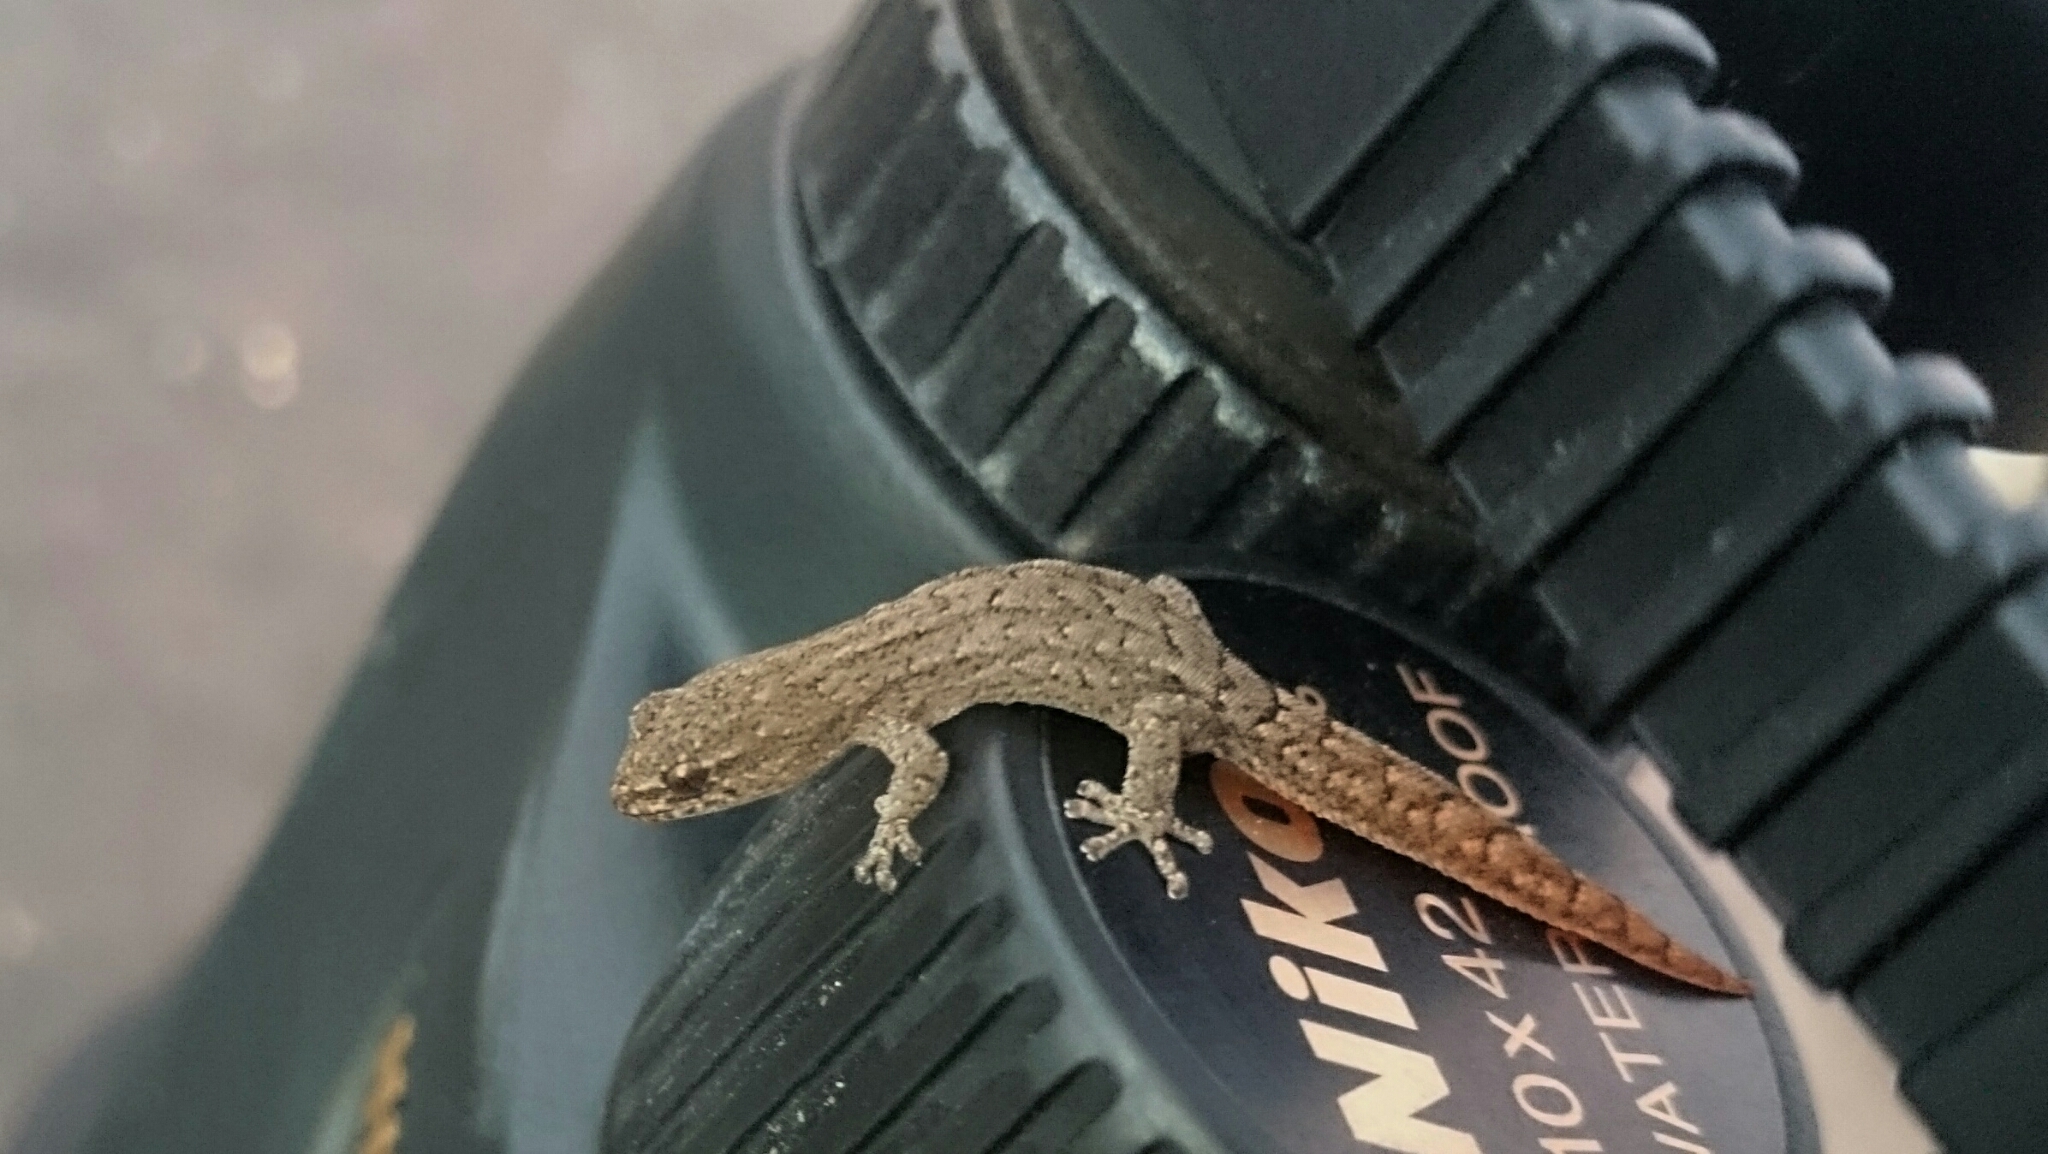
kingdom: Animalia
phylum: Chordata
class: Squamata
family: Gekkonidae
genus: Goggia
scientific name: Goggia incognita
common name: Cryptic pygmy gecko
